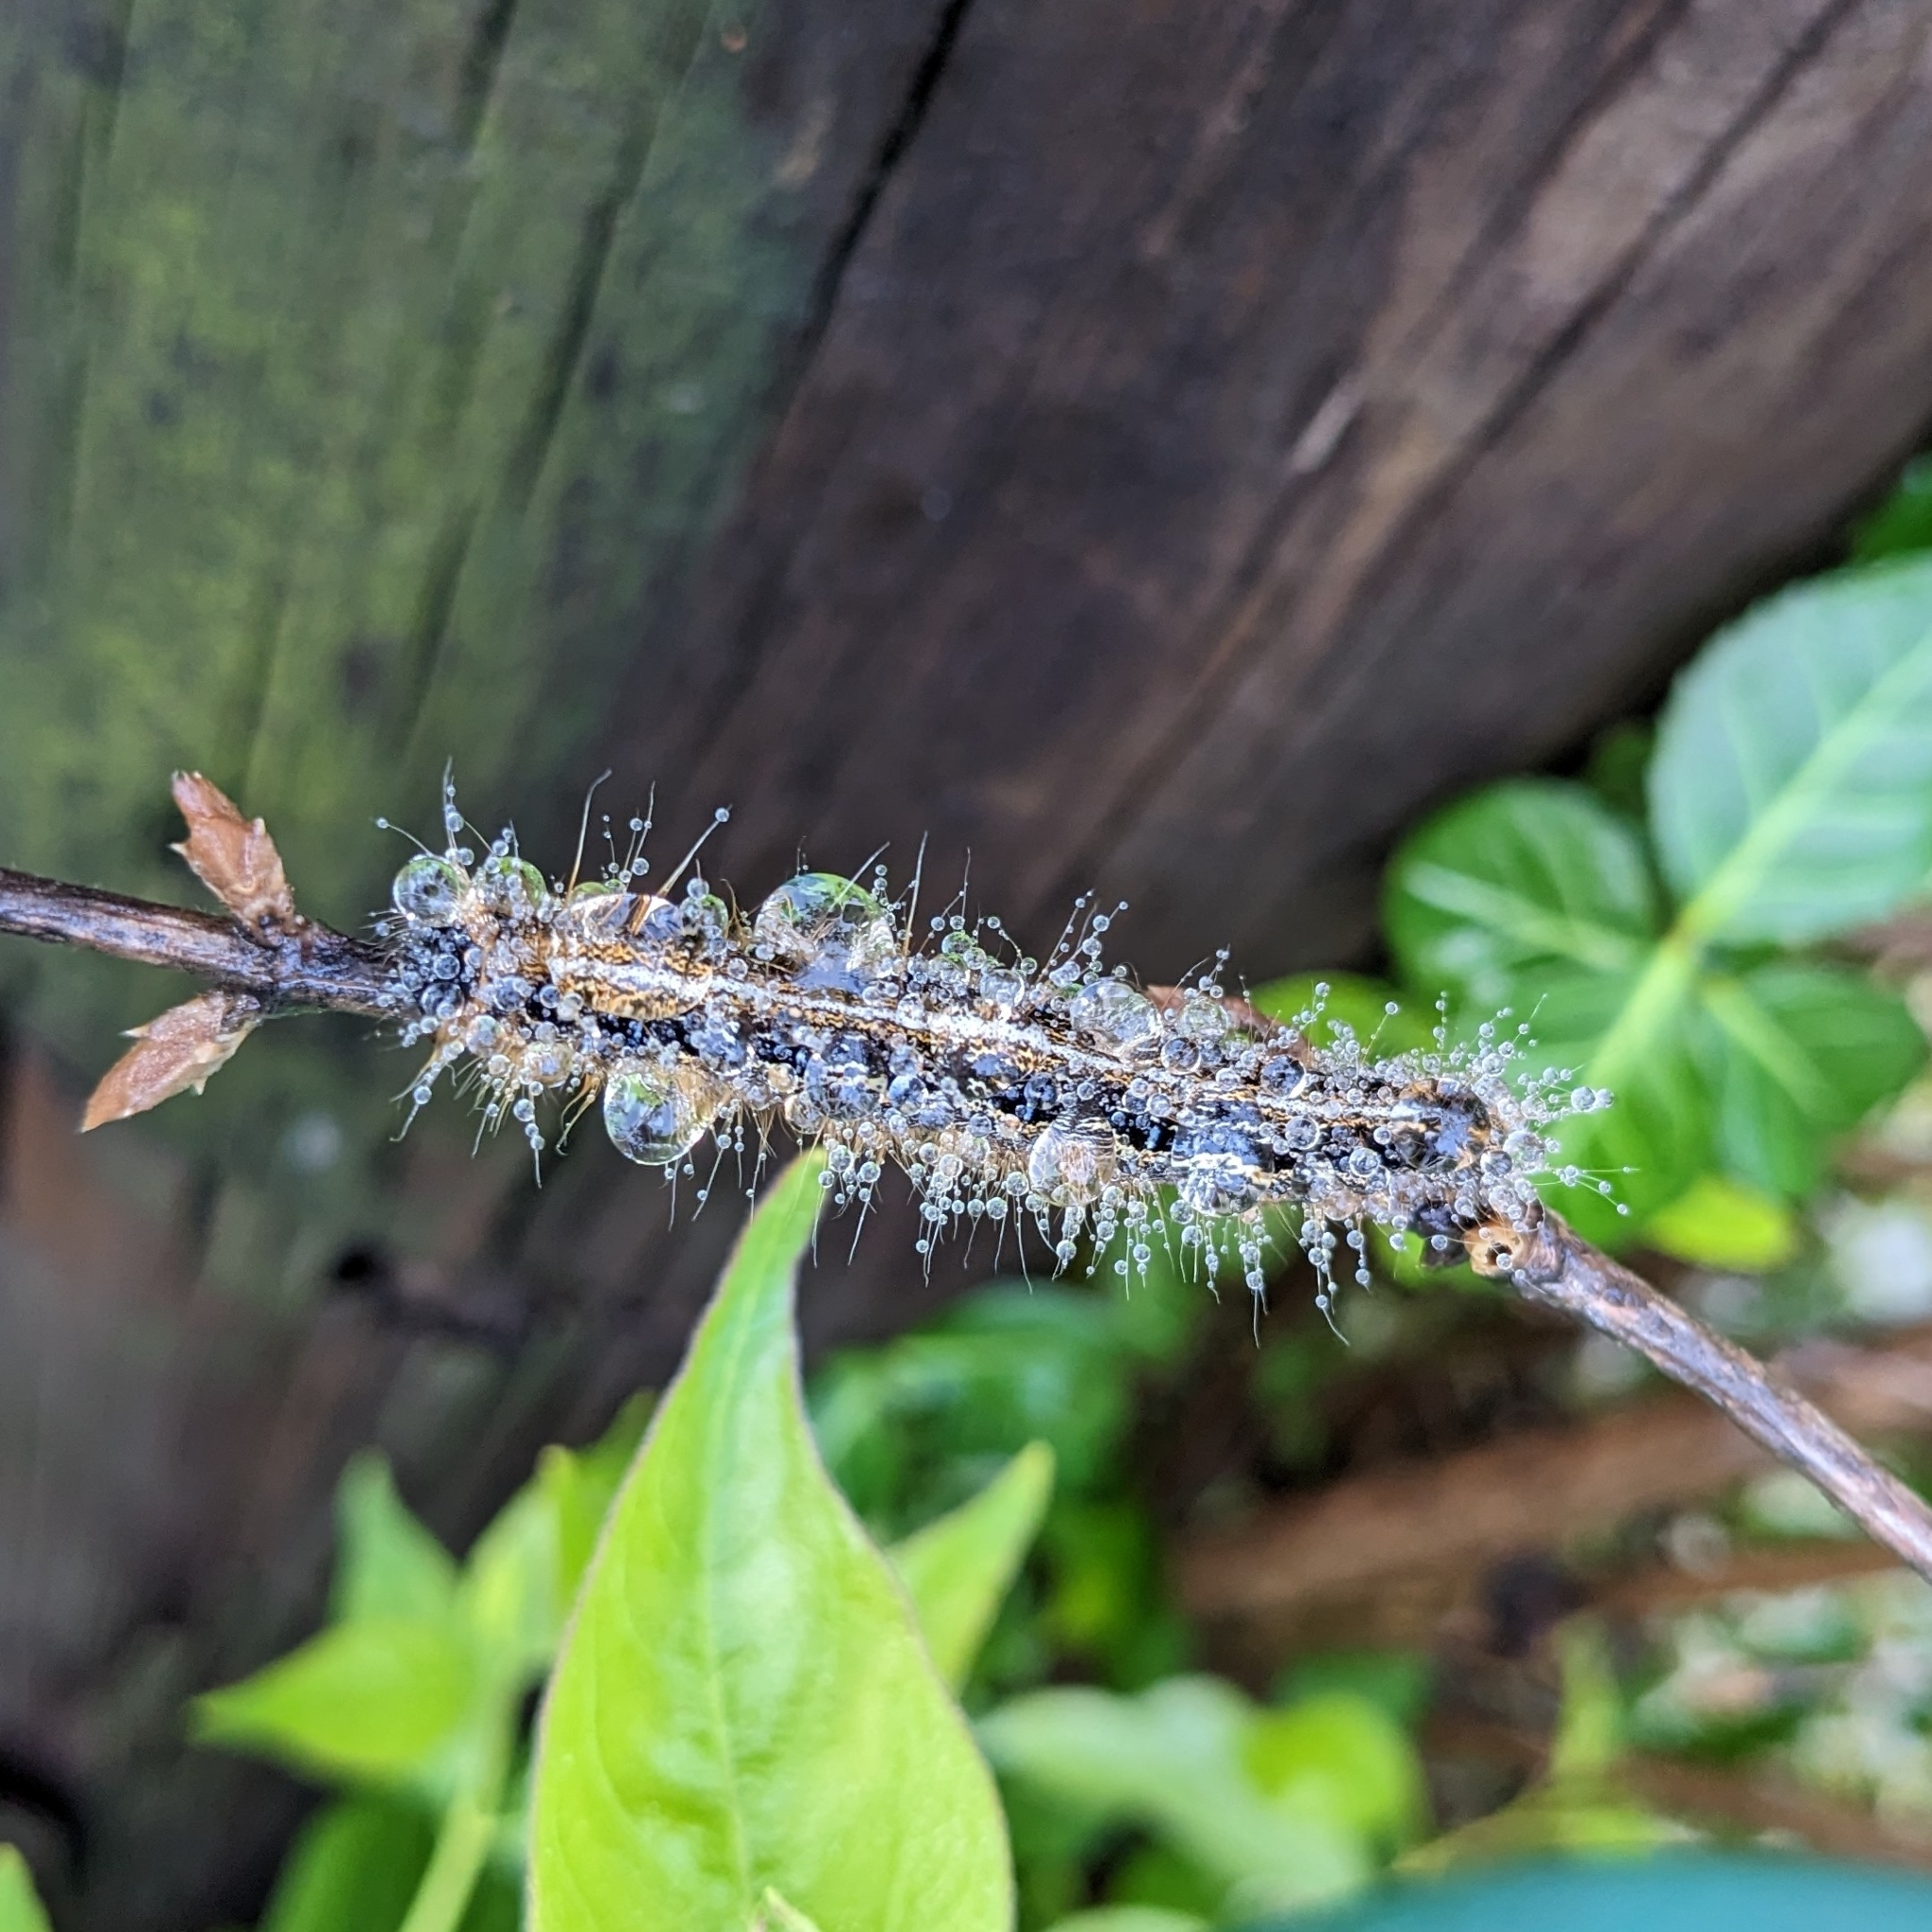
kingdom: Animalia
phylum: Arthropoda
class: Insecta
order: Lepidoptera
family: Lasiocampidae
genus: Malacosoma
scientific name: Malacosoma americana
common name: Eastern tent caterpillar moth
